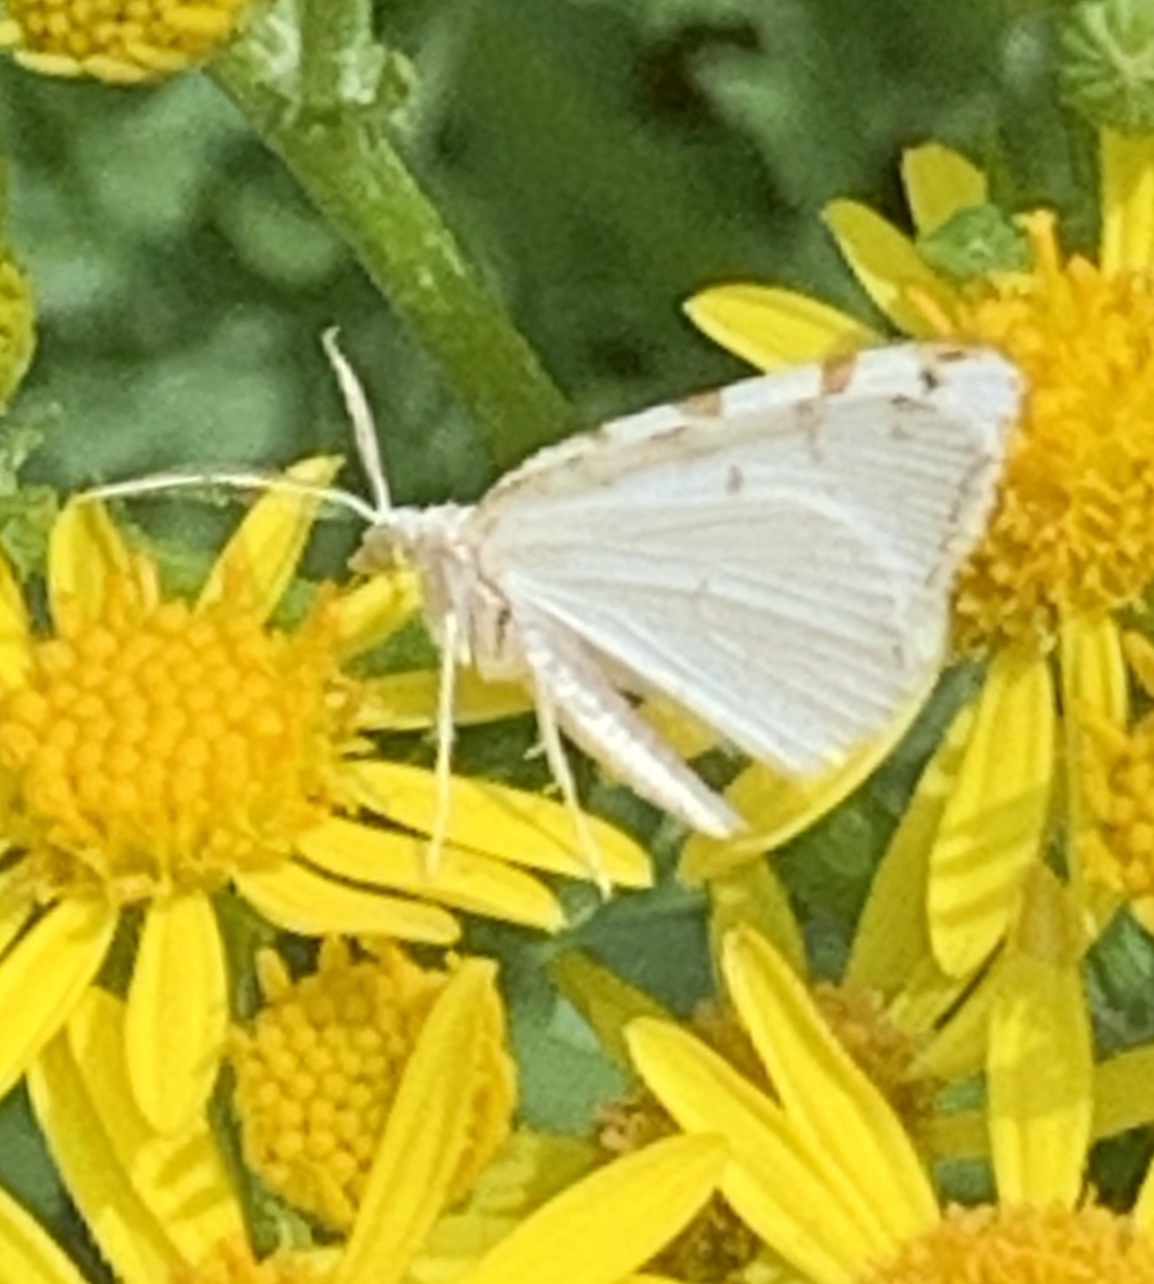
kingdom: Animalia
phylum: Arthropoda
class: Insecta
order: Lepidoptera
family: Geometridae
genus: Macaria
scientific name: Macaria pustularia
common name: Lesser maple spanworm moth
